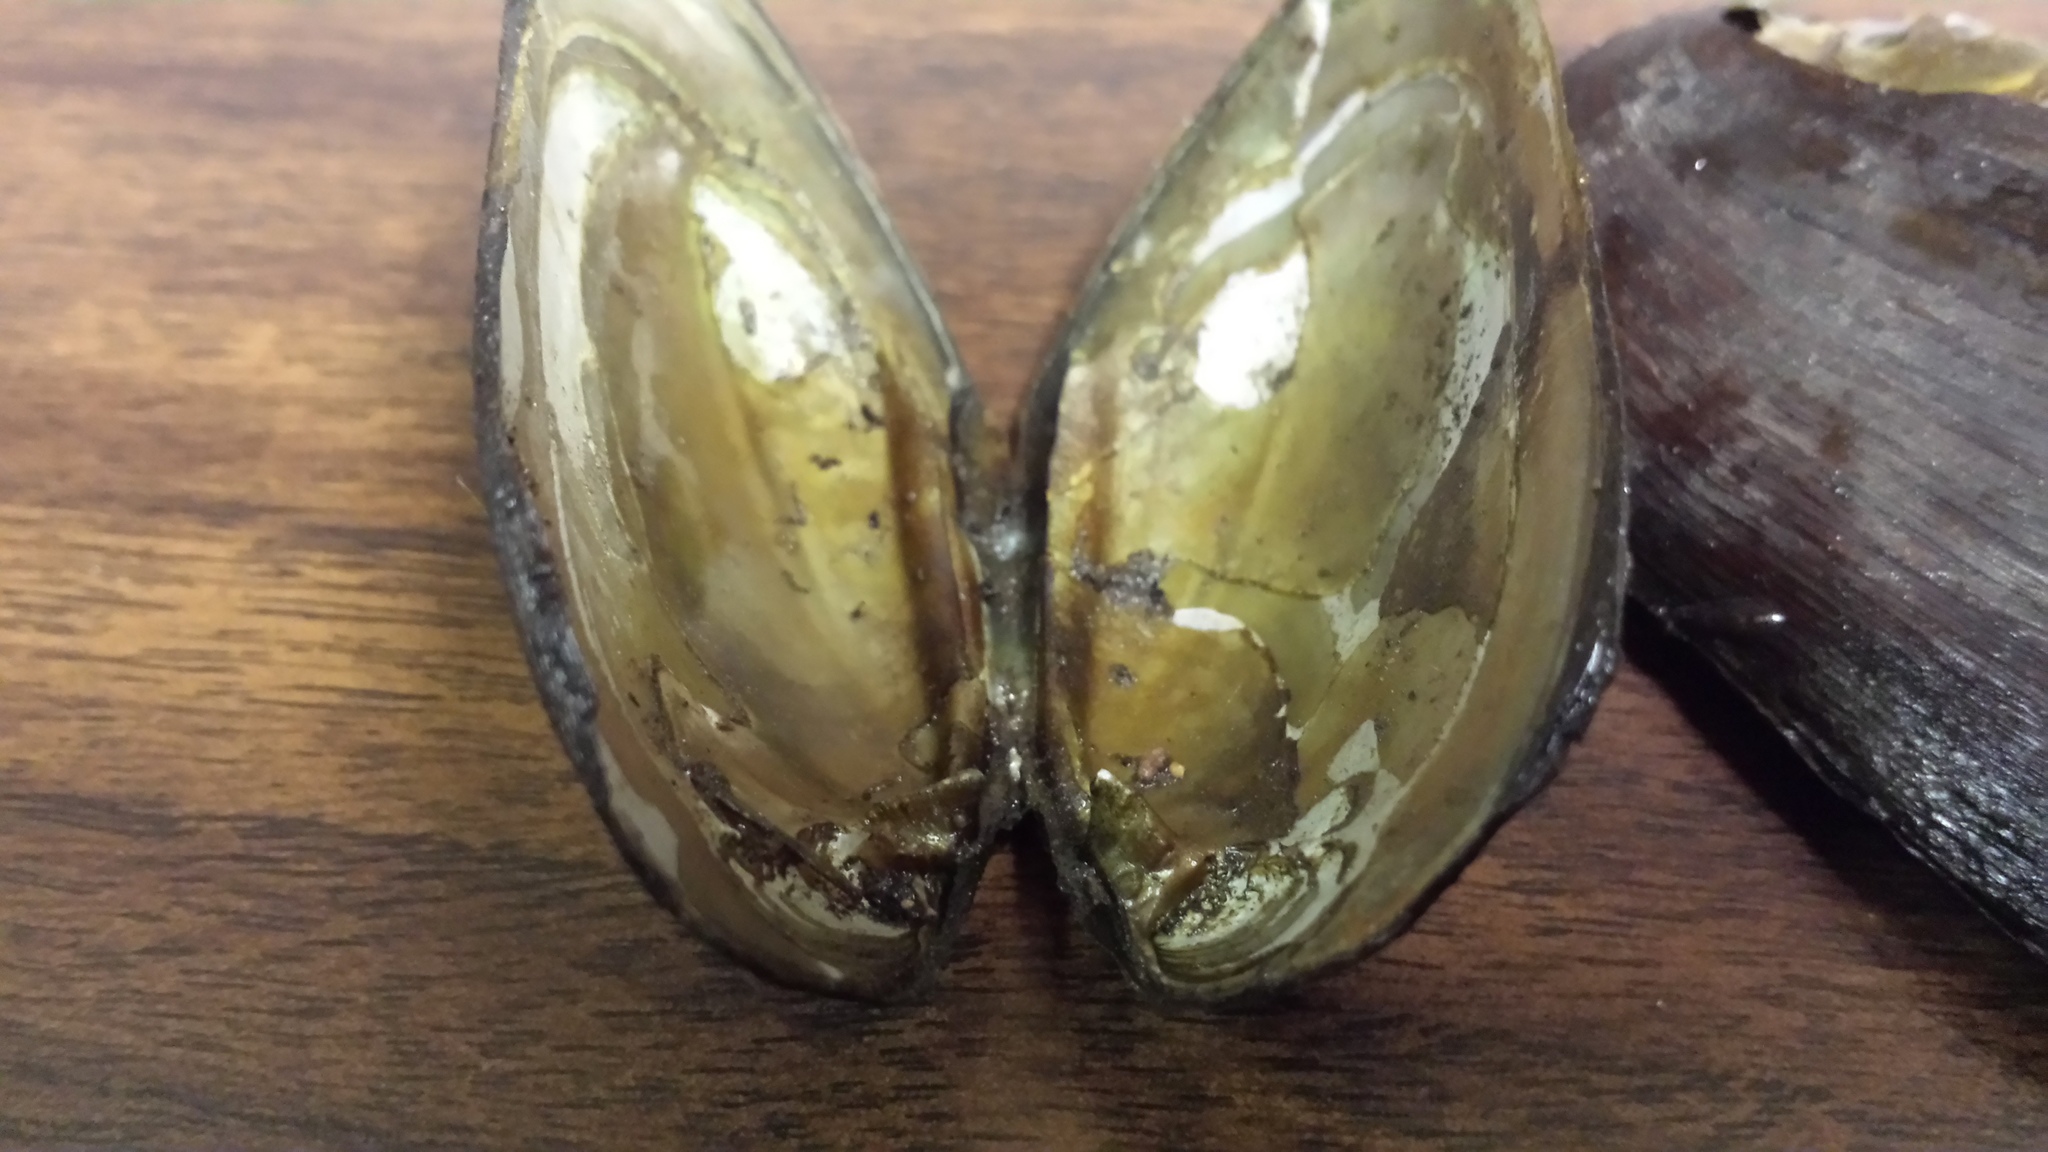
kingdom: Animalia
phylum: Mollusca
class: Bivalvia
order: Unionida
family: Unionidae
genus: Elliptio
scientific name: Elliptio complanata
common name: Eastern elliptio
